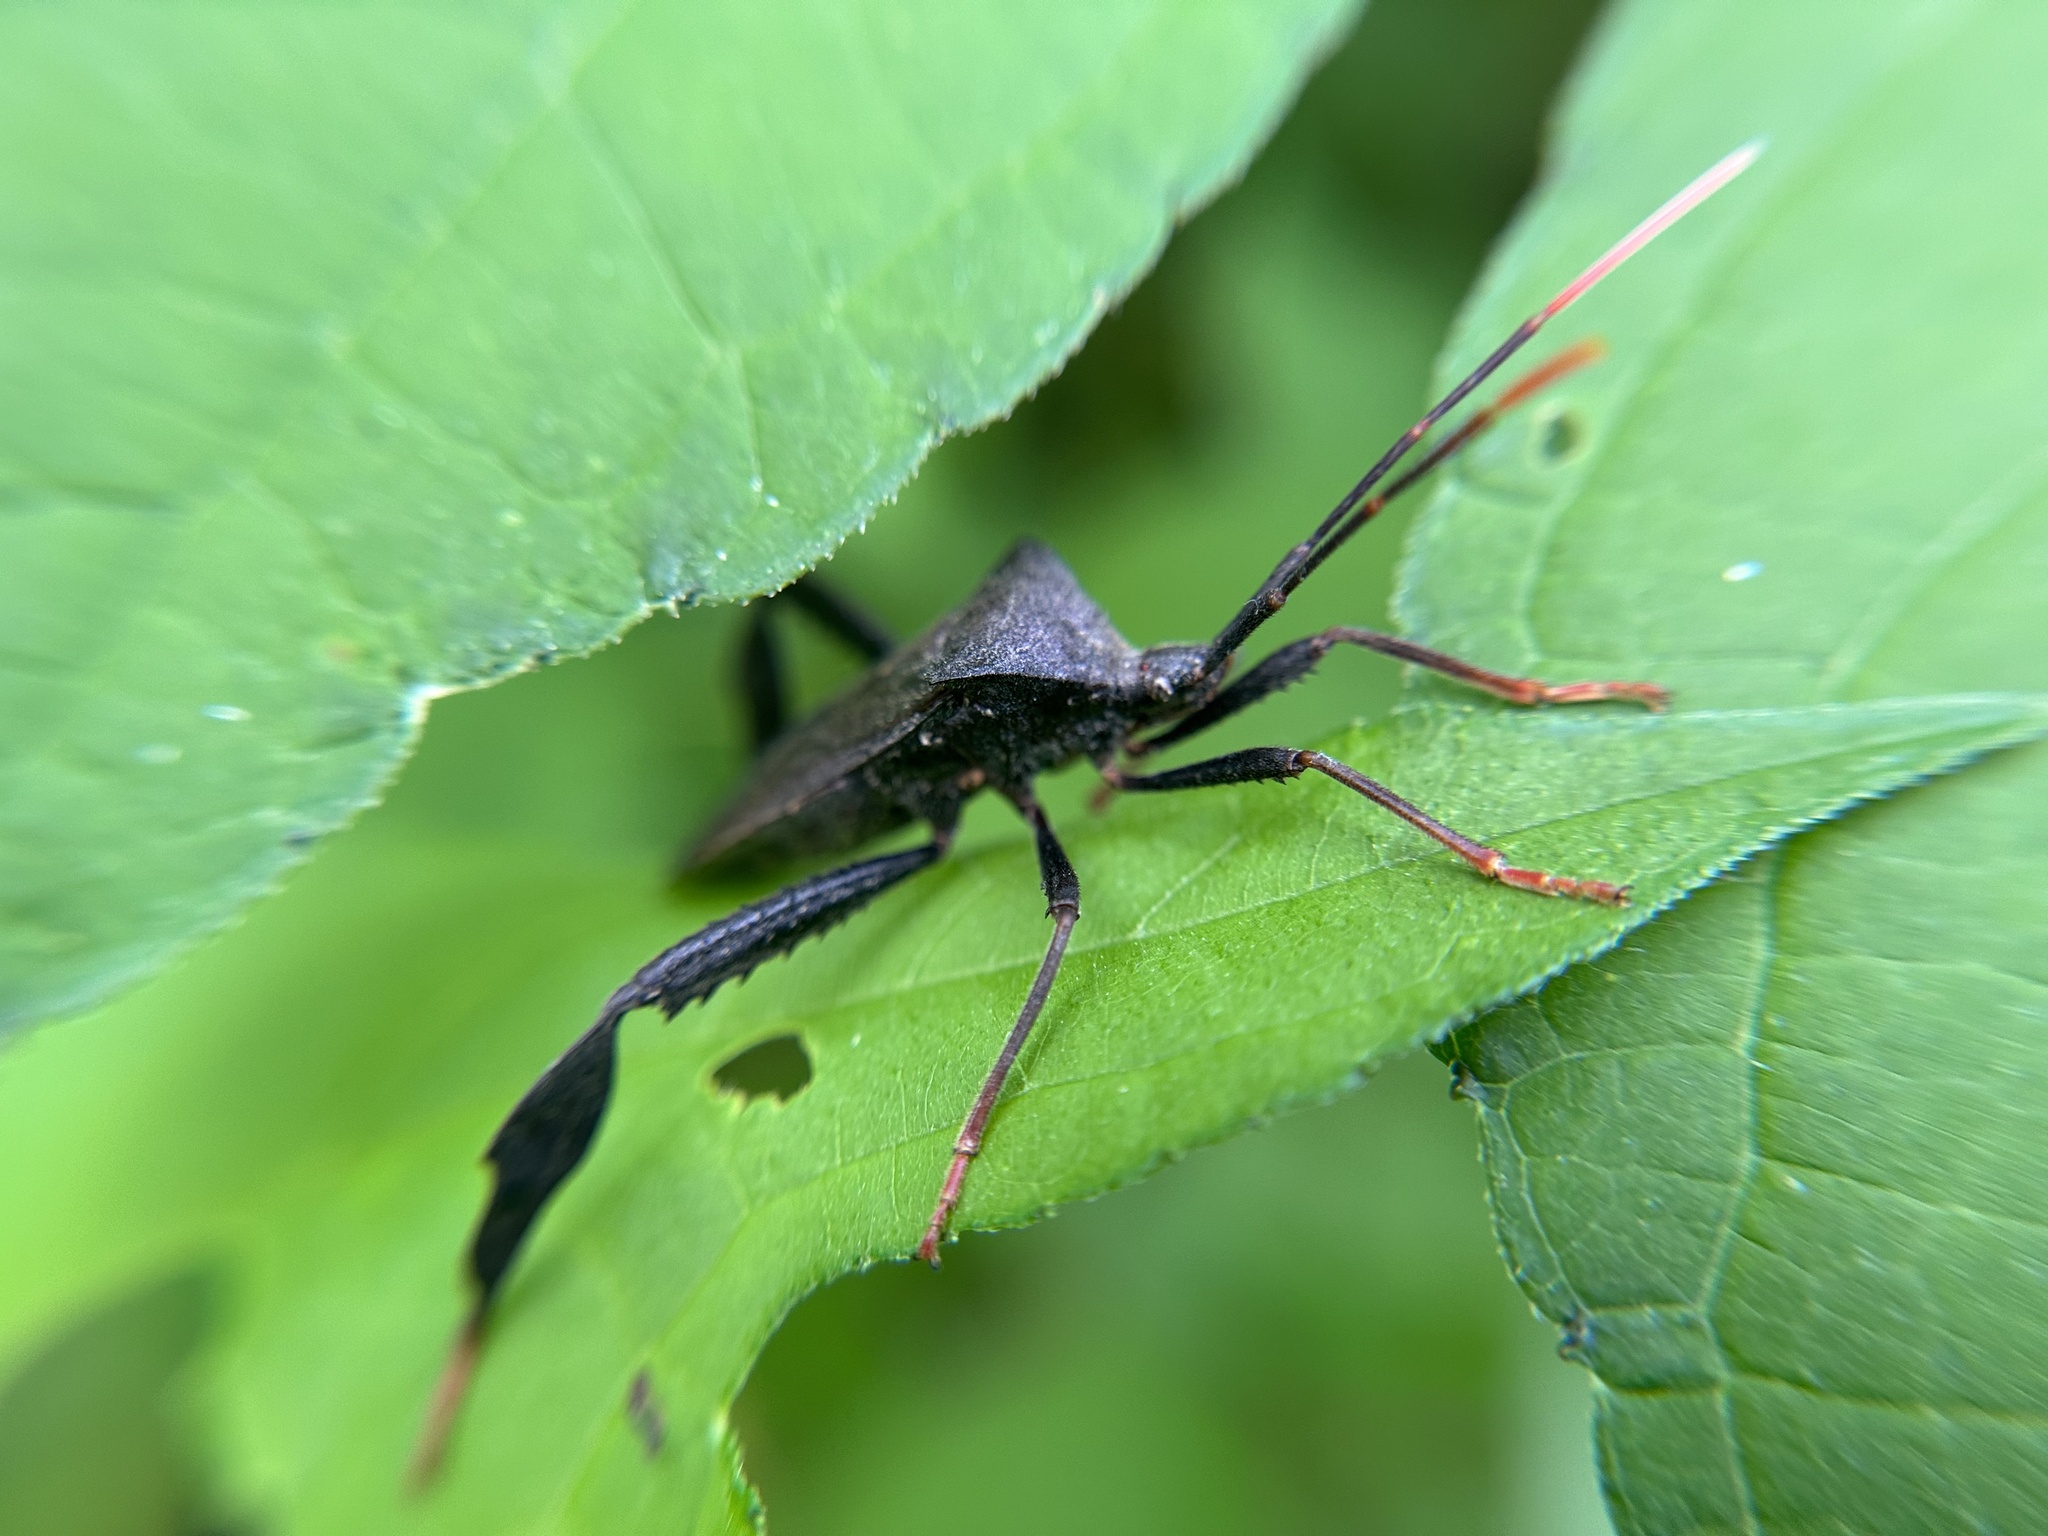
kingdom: Animalia
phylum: Arthropoda
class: Insecta
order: Hemiptera
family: Coreidae
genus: Acanthocephala
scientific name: Acanthocephala terminalis
